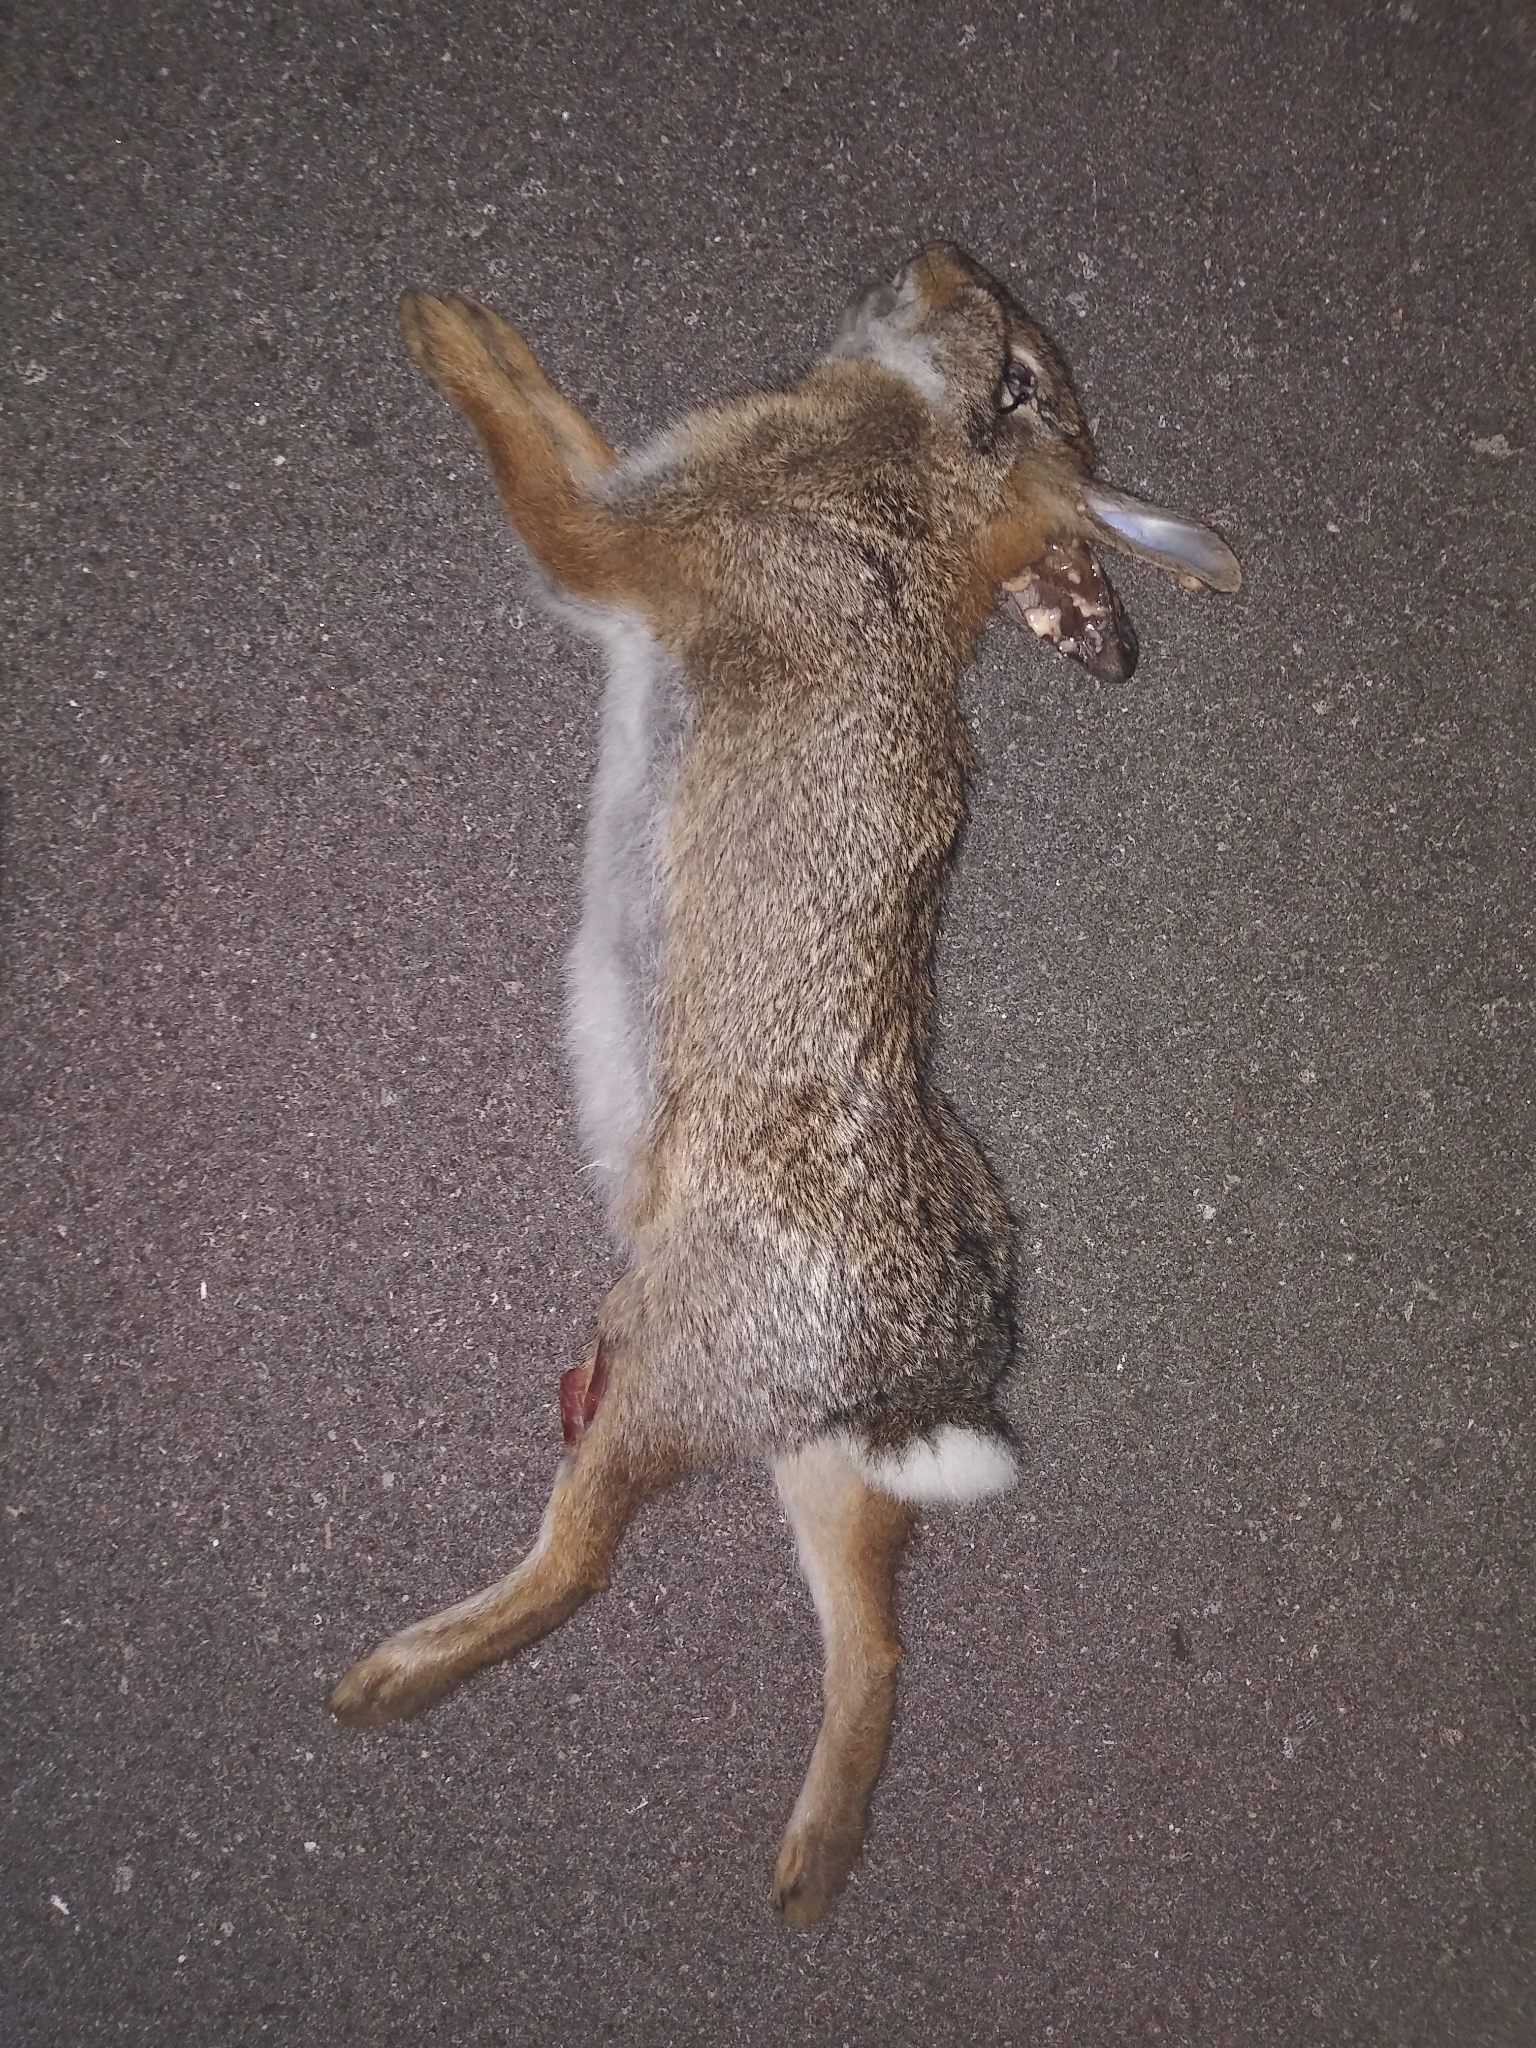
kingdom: Animalia
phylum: Chordata
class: Mammalia
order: Lagomorpha
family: Leporidae
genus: Sylvilagus
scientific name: Sylvilagus floridanus
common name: Eastern cottontail
